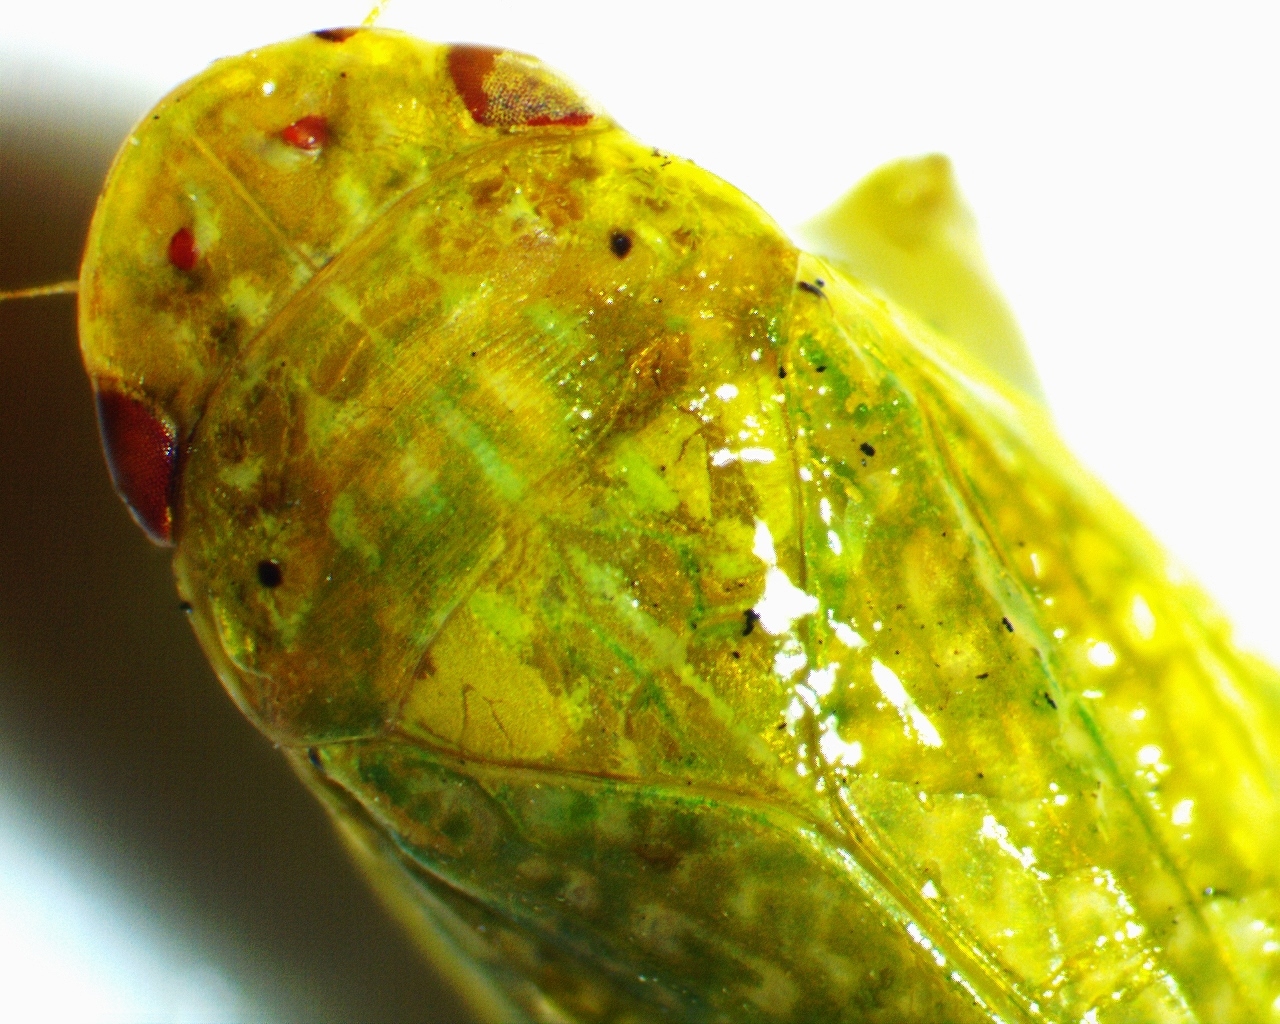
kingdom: Animalia
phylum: Arthropoda
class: Insecta
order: Hemiptera
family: Cicadellidae
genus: Rugosana
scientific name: Rugosana querci
